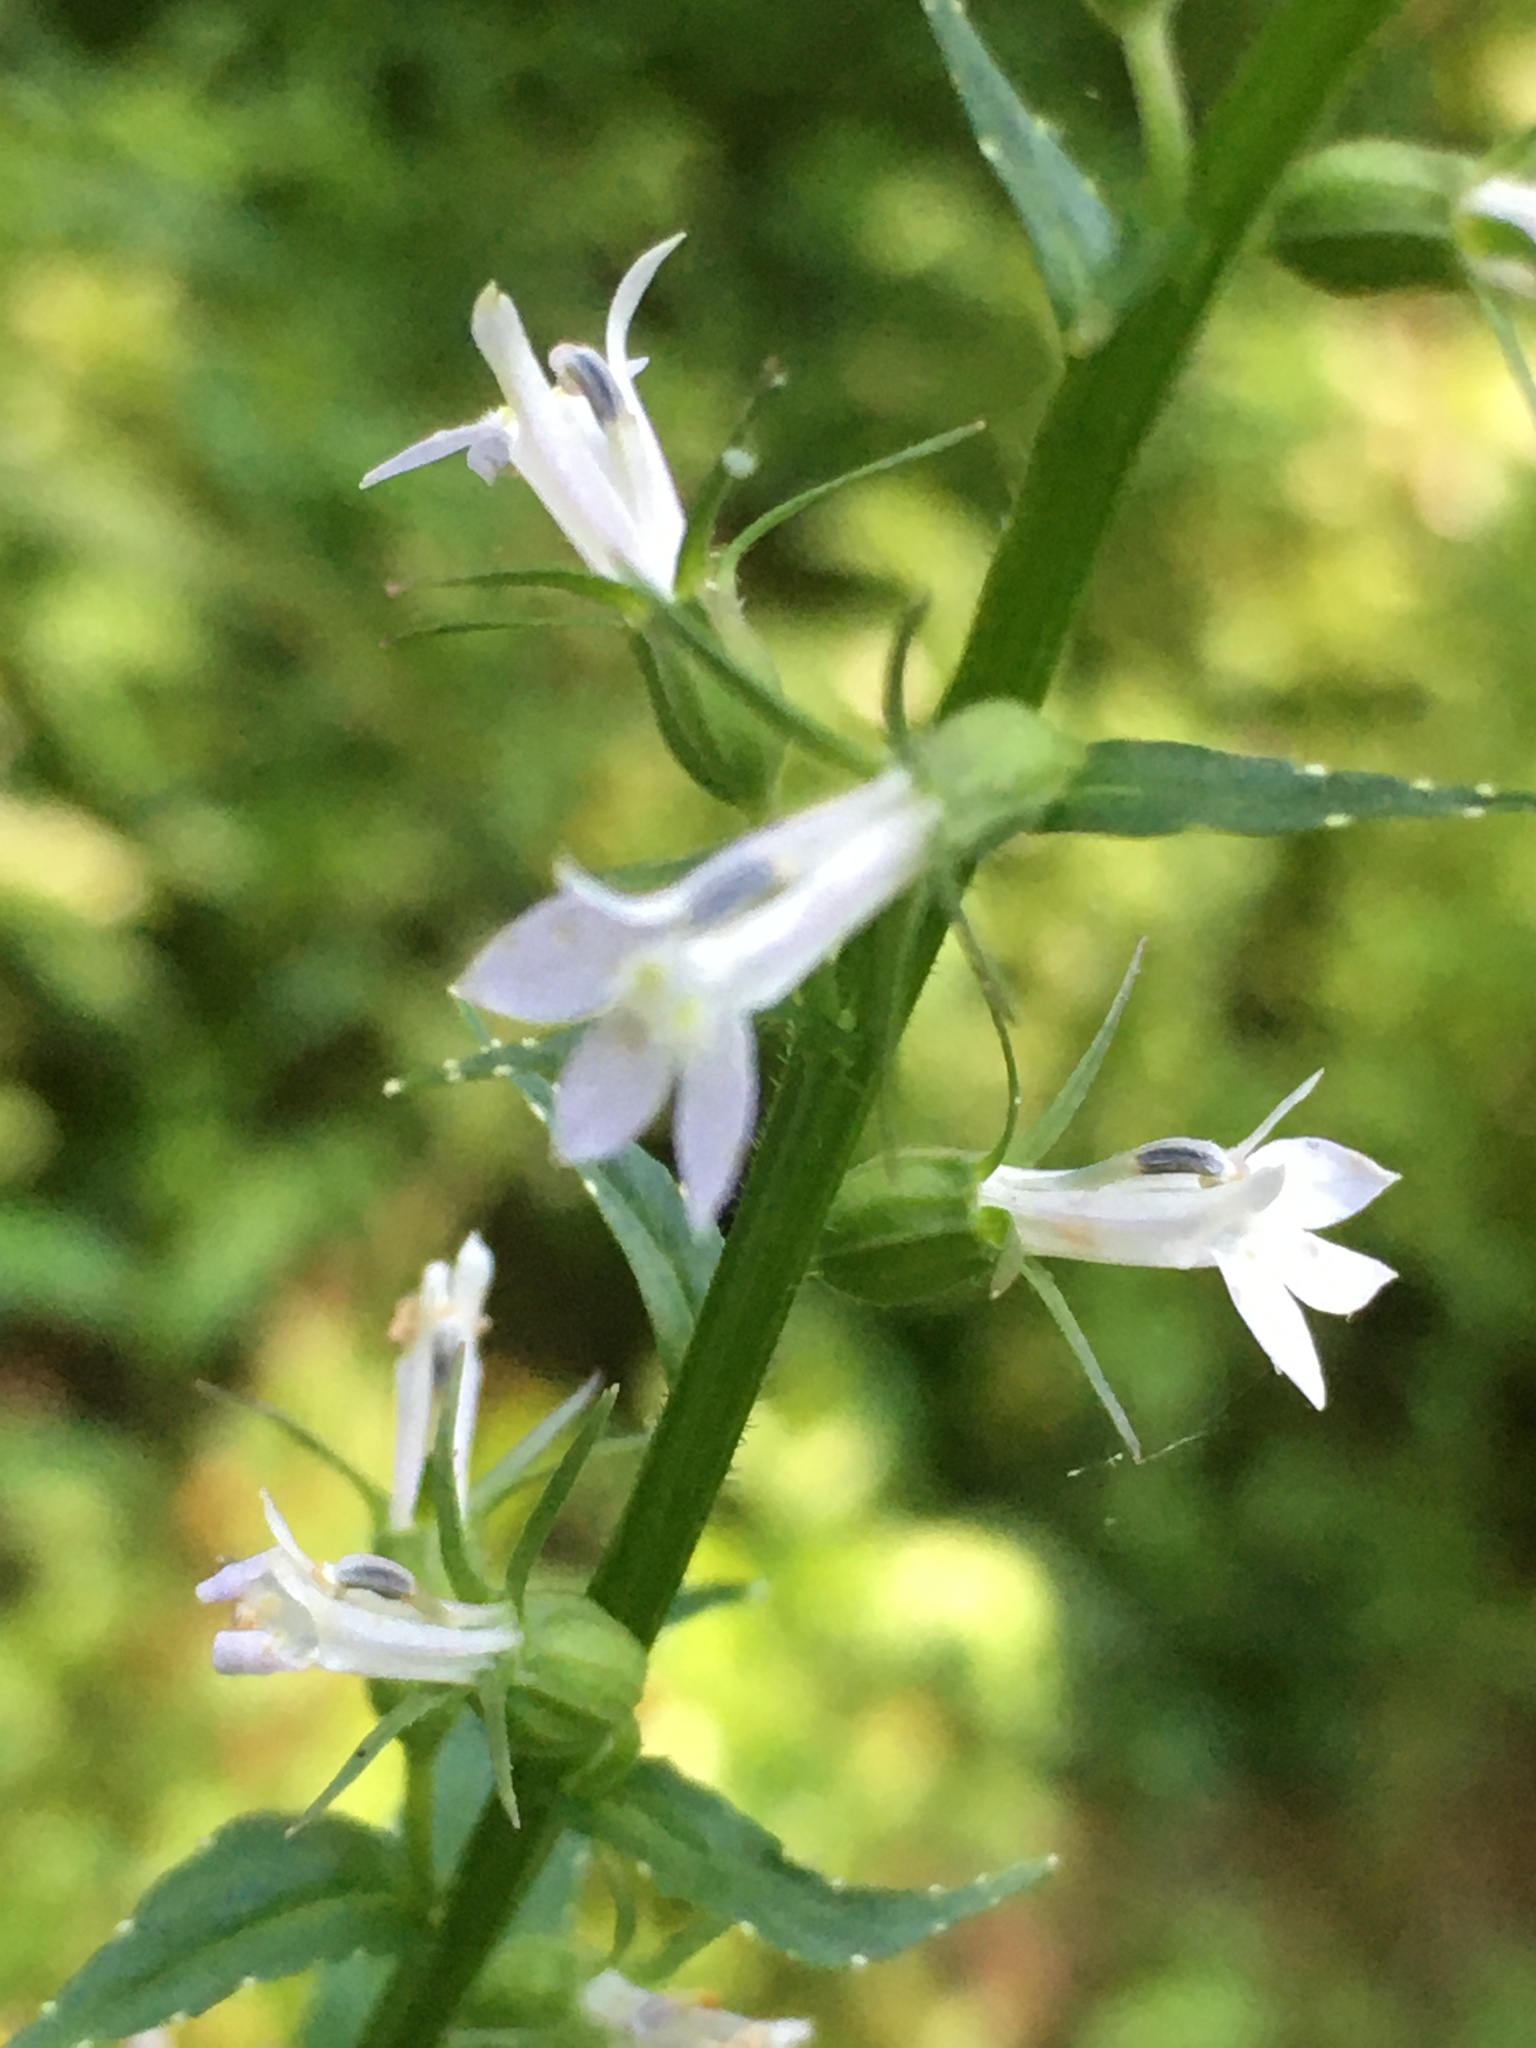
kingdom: Plantae
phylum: Tracheophyta
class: Magnoliopsida
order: Asterales
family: Campanulaceae
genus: Lobelia
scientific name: Lobelia inflata
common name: Indian tobacco
